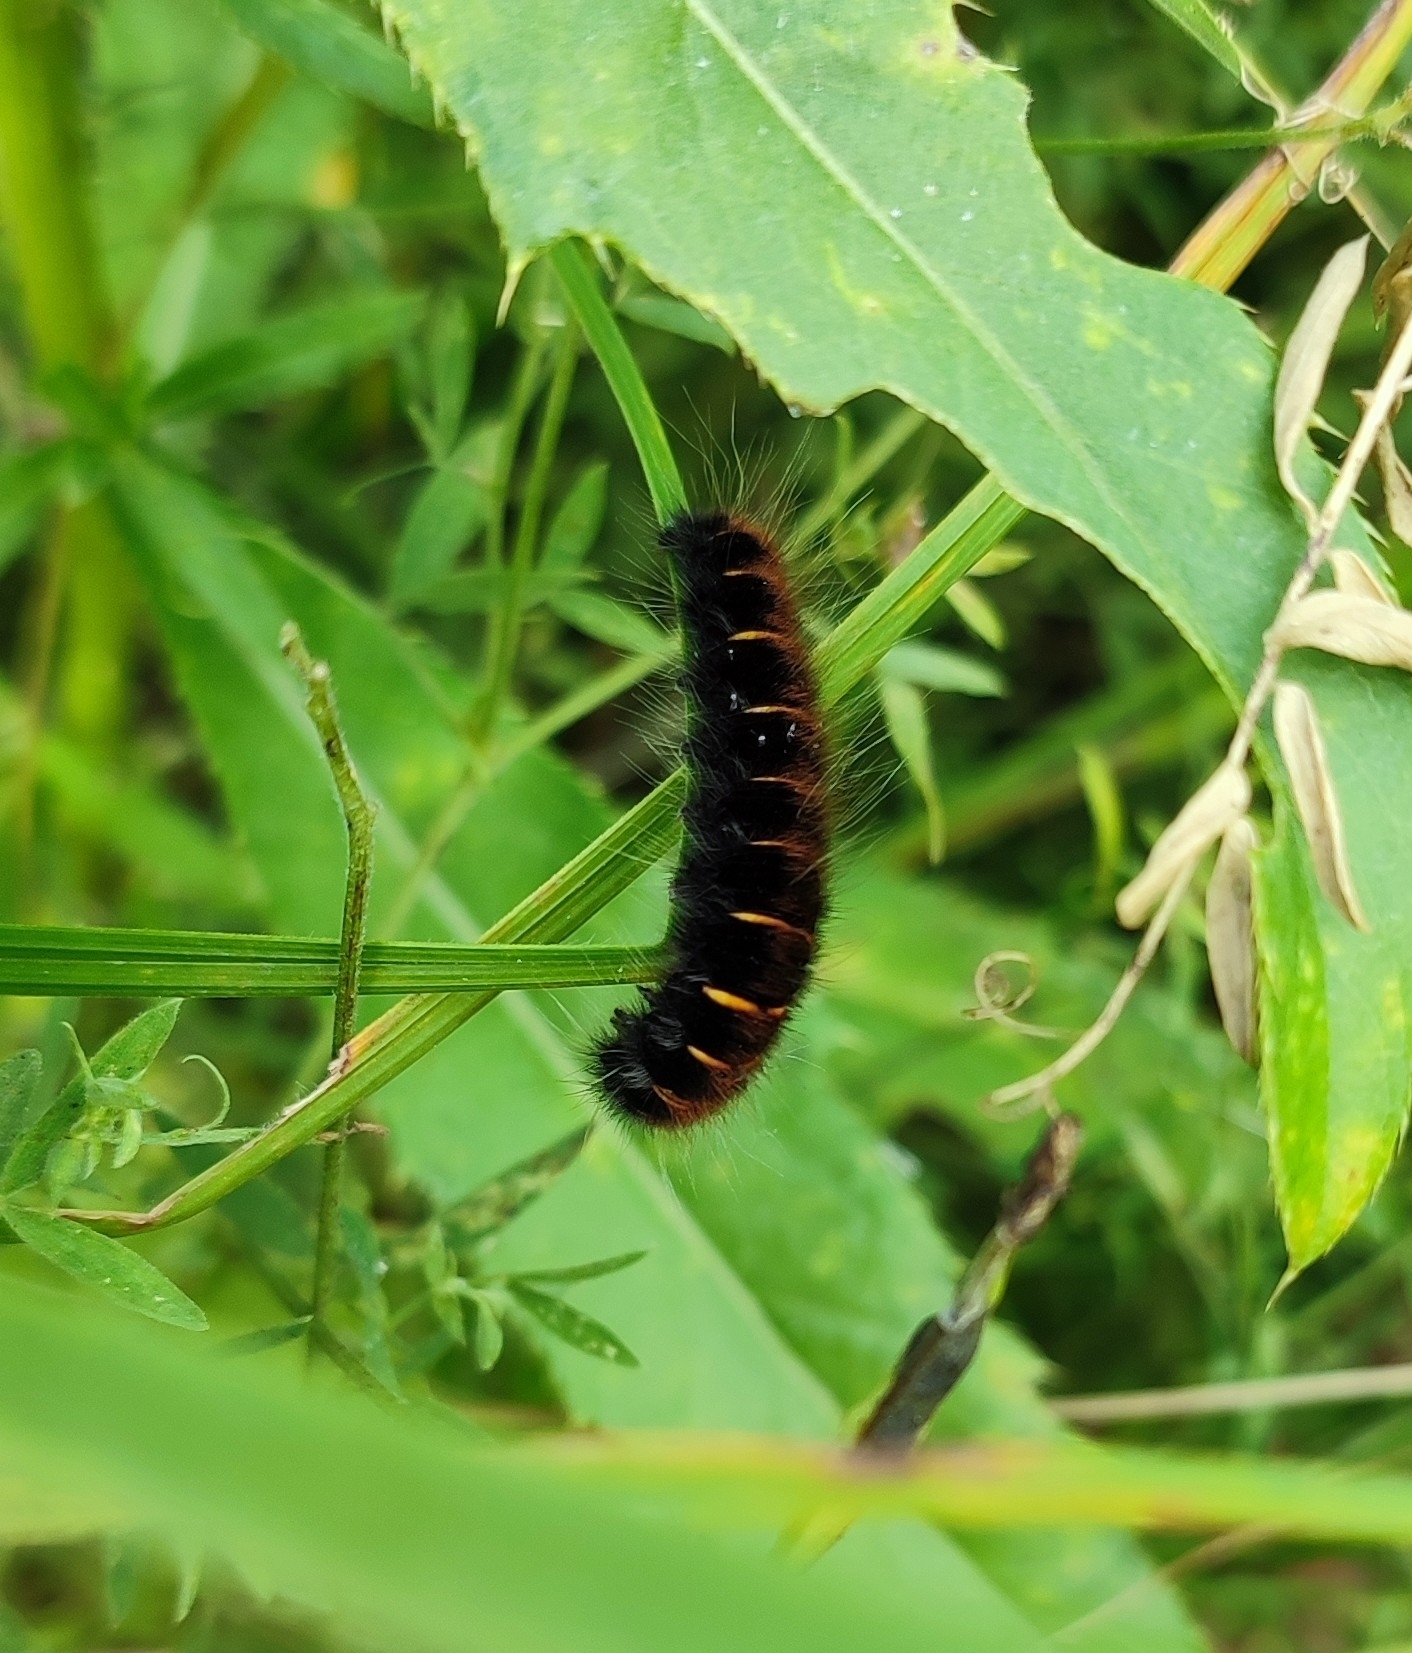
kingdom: Animalia
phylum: Arthropoda
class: Insecta
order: Lepidoptera
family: Lasiocampidae
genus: Macrothylacia
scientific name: Macrothylacia rubi
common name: Fox moth
